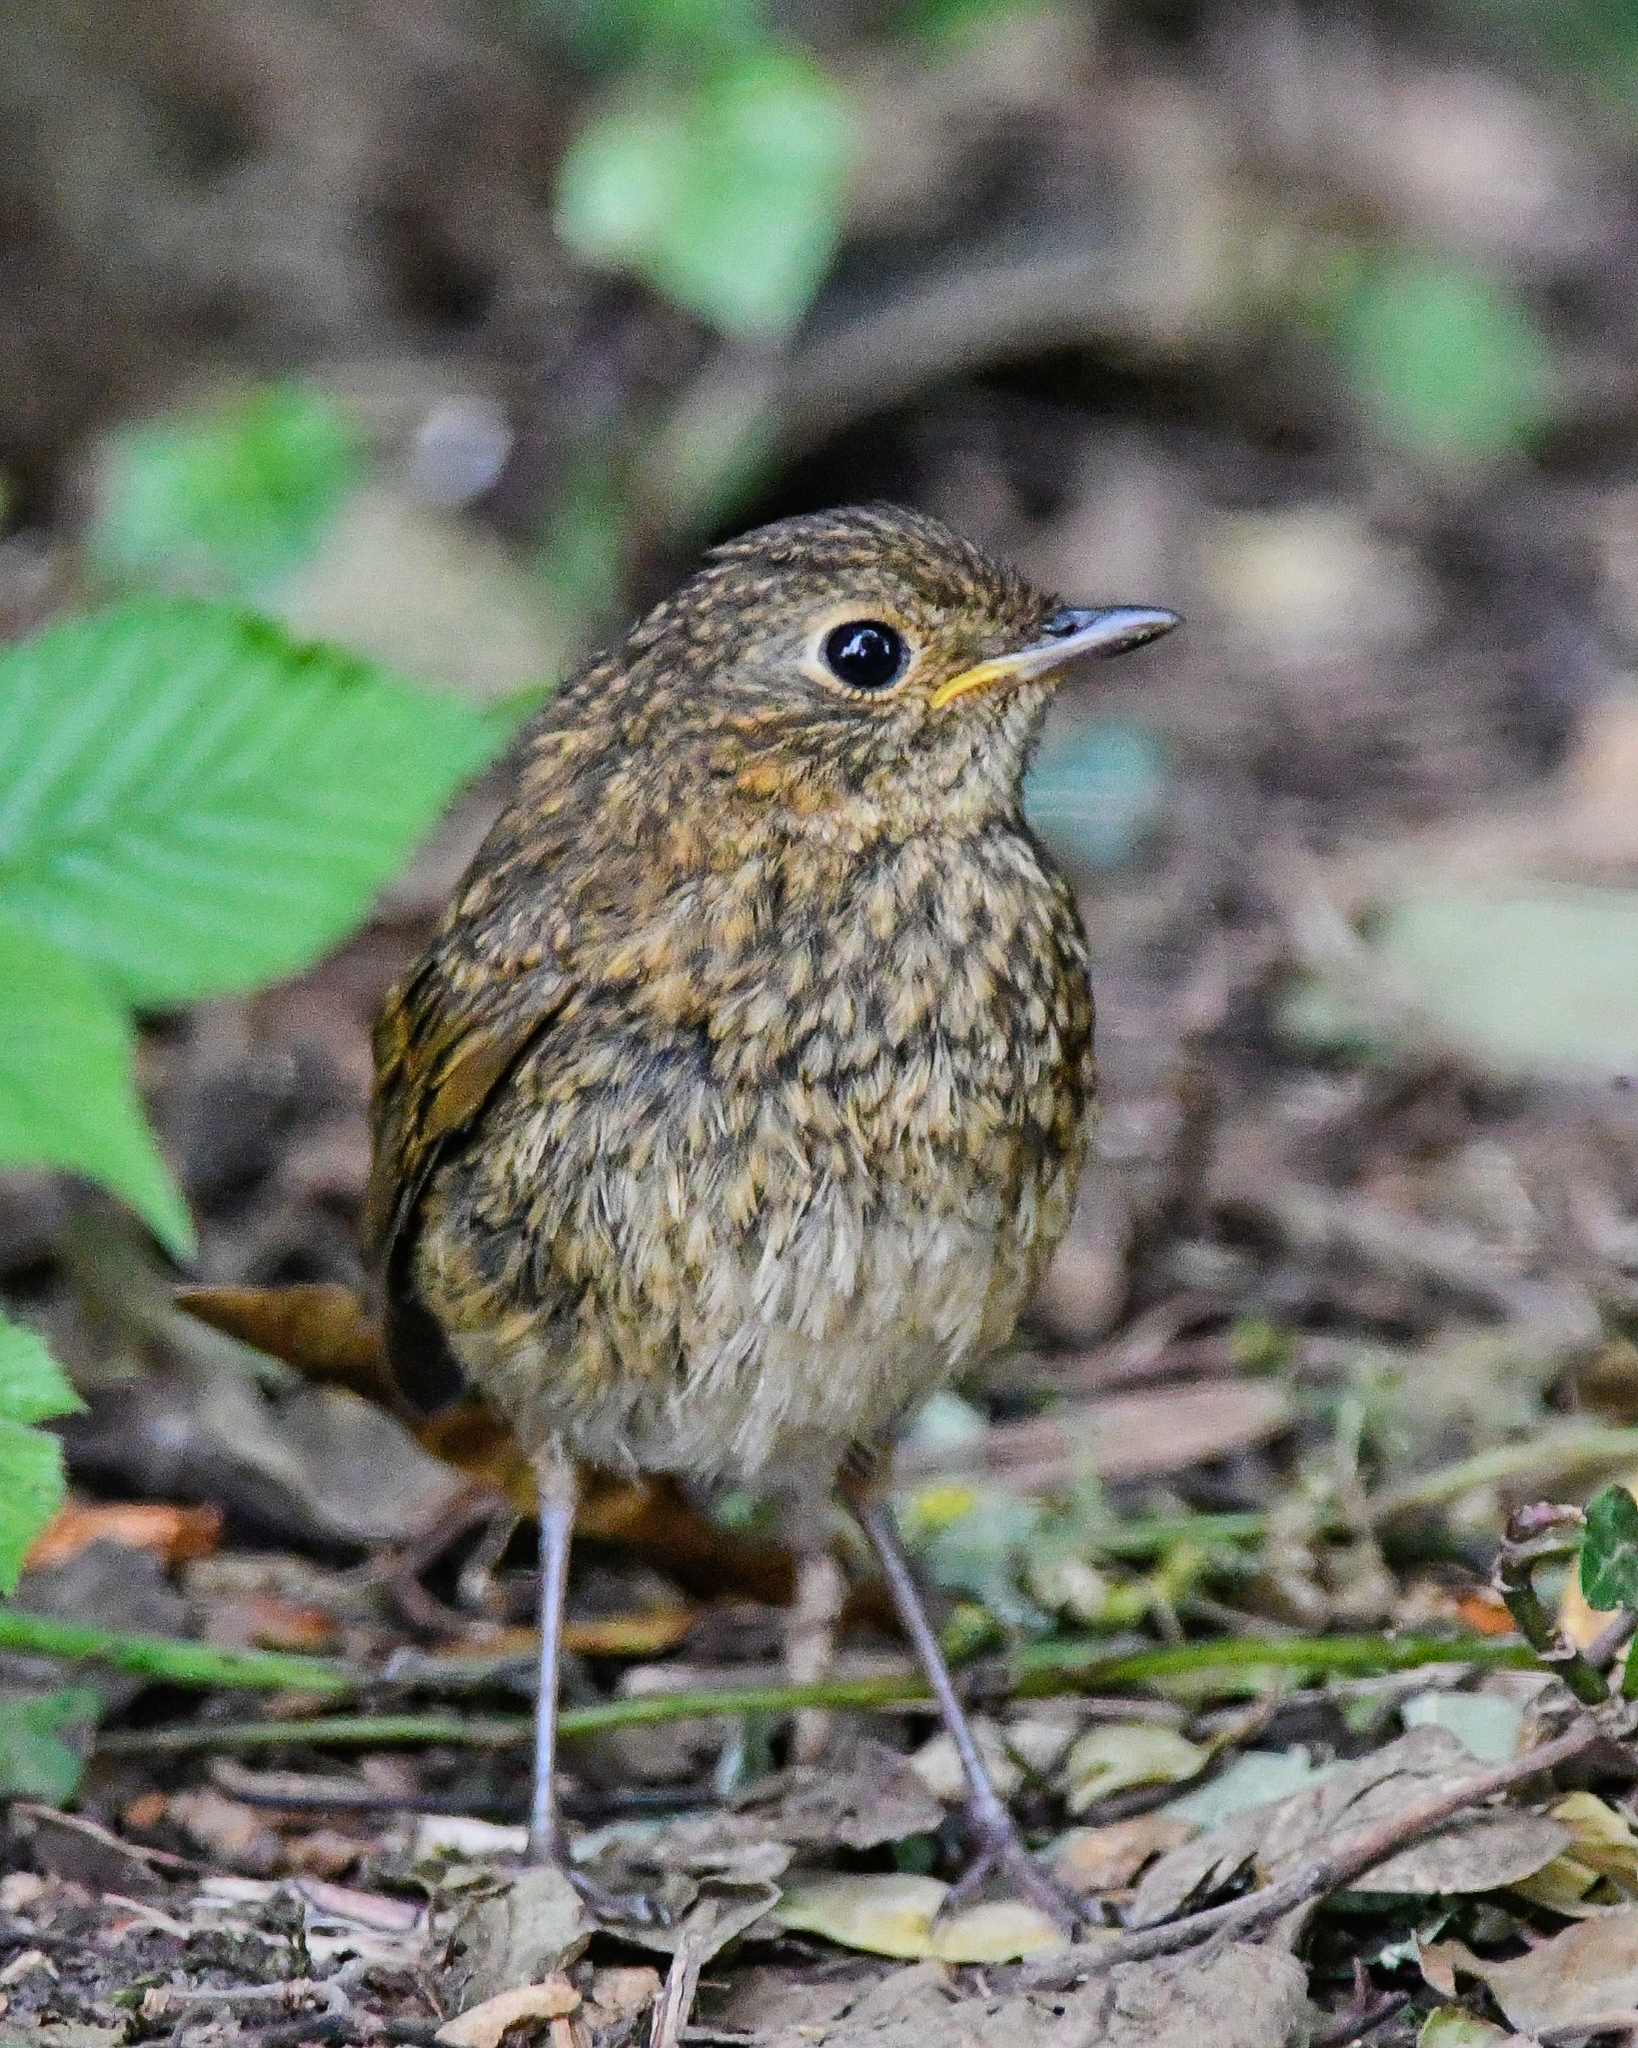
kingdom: Animalia
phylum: Chordata
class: Aves
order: Passeriformes
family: Muscicapidae
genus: Erithacus
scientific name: Erithacus rubecula
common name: European robin
